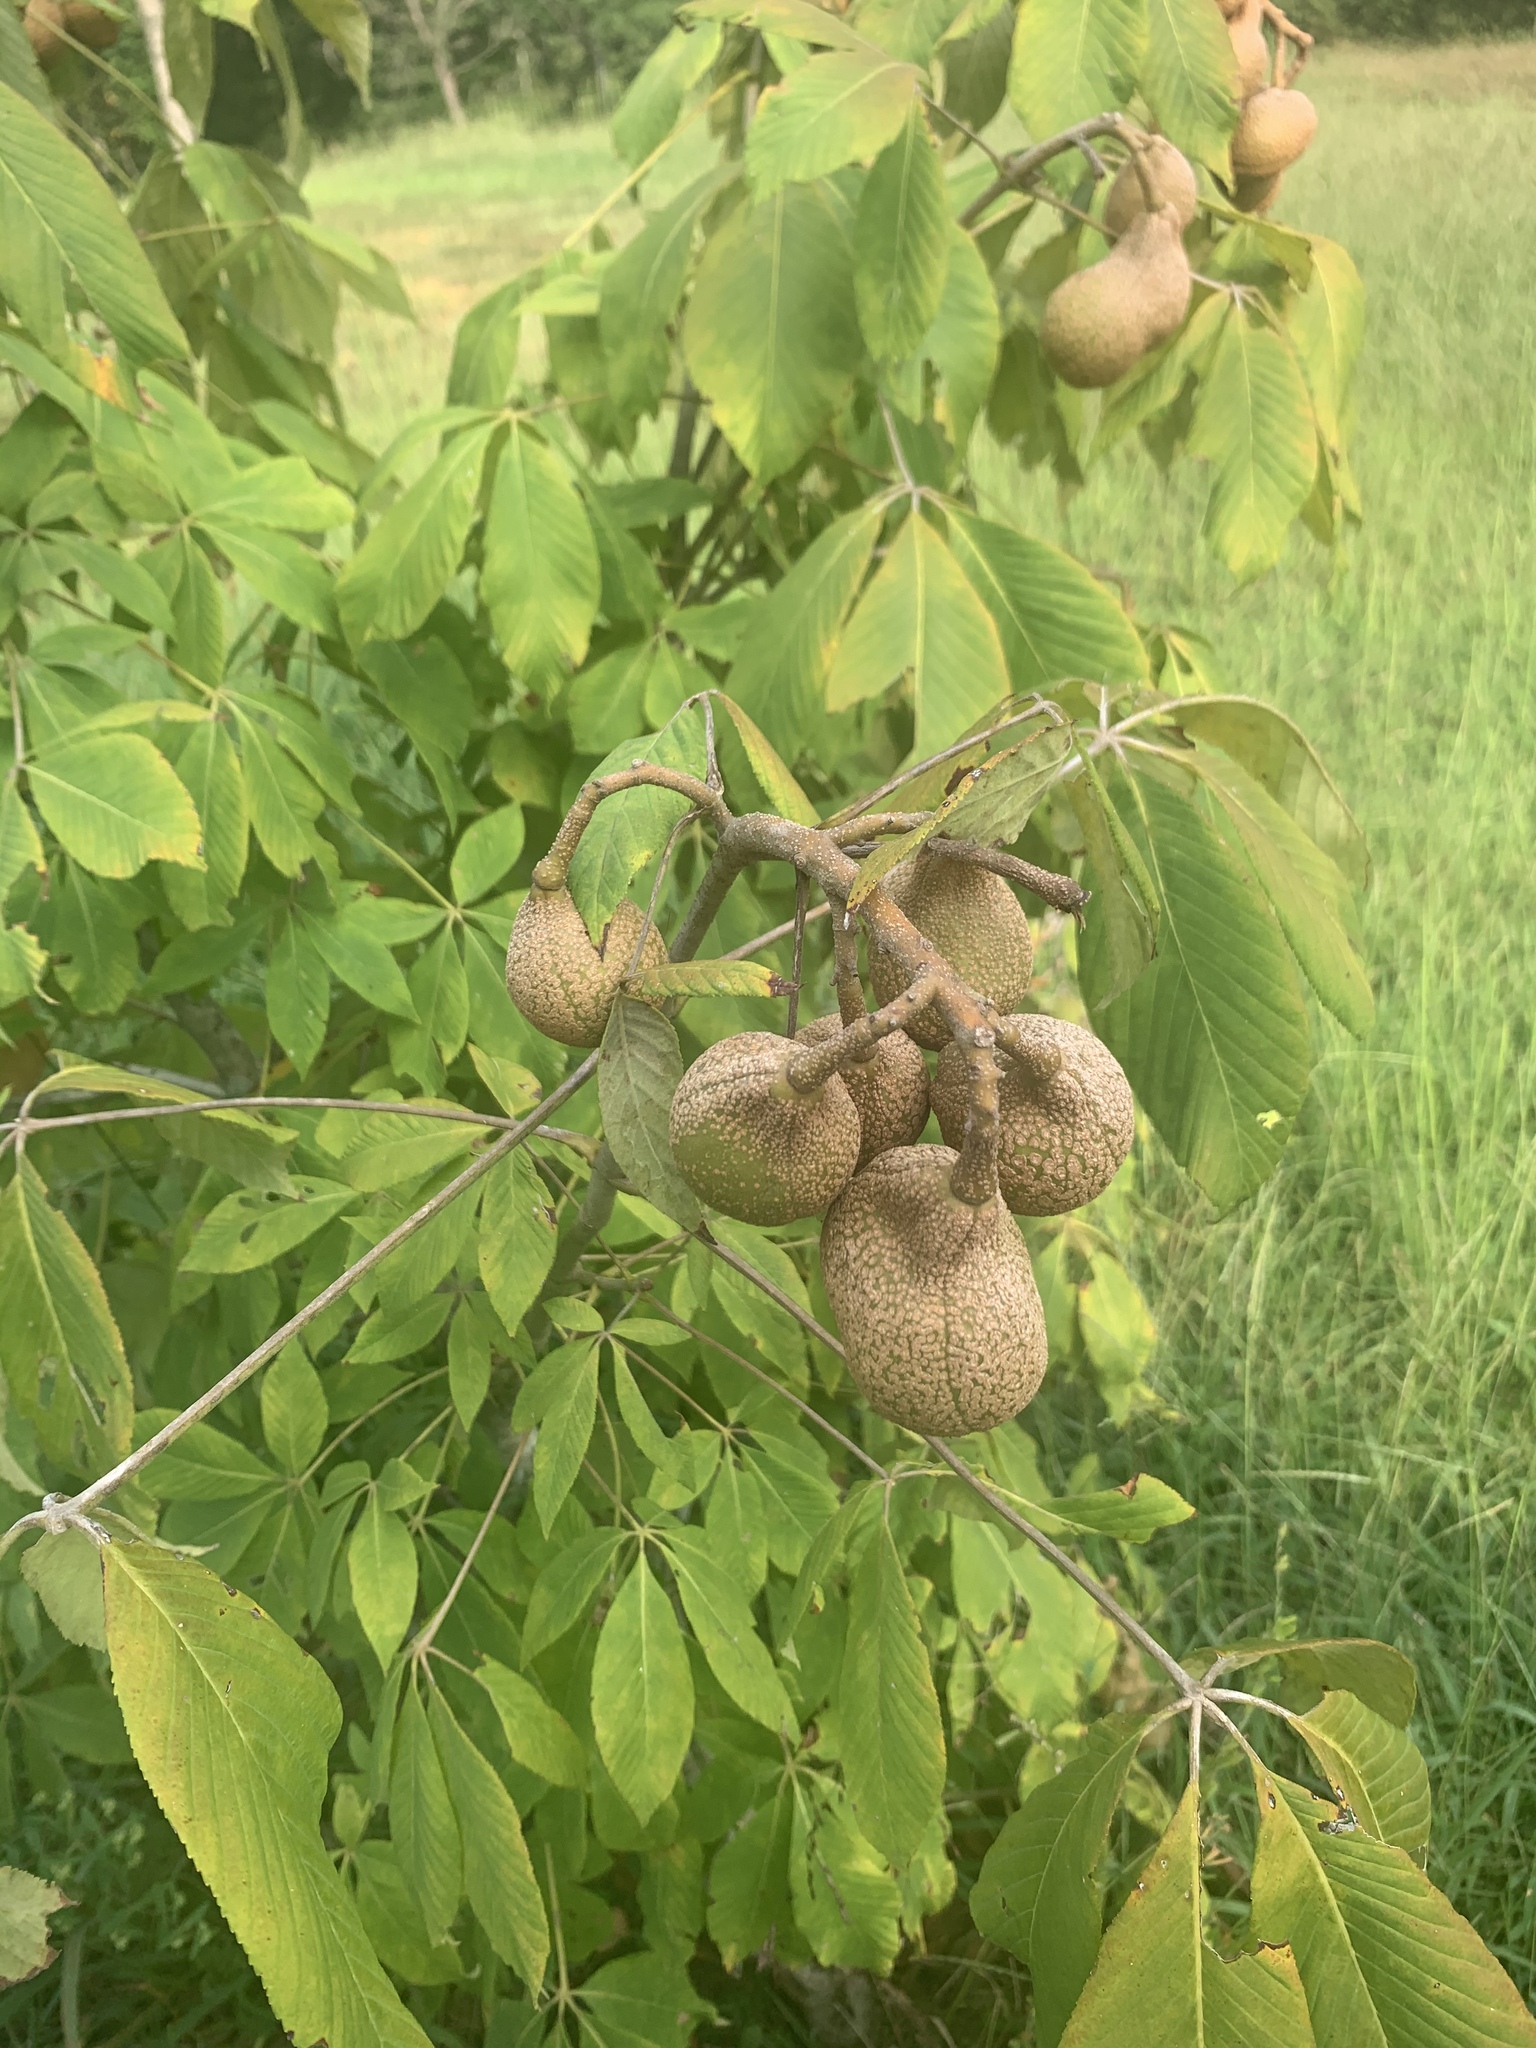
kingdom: Plantae
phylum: Tracheophyta
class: Magnoliopsida
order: Sapindales
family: Sapindaceae
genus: Aesculus
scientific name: Aesculus pavia
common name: Red buckeye
